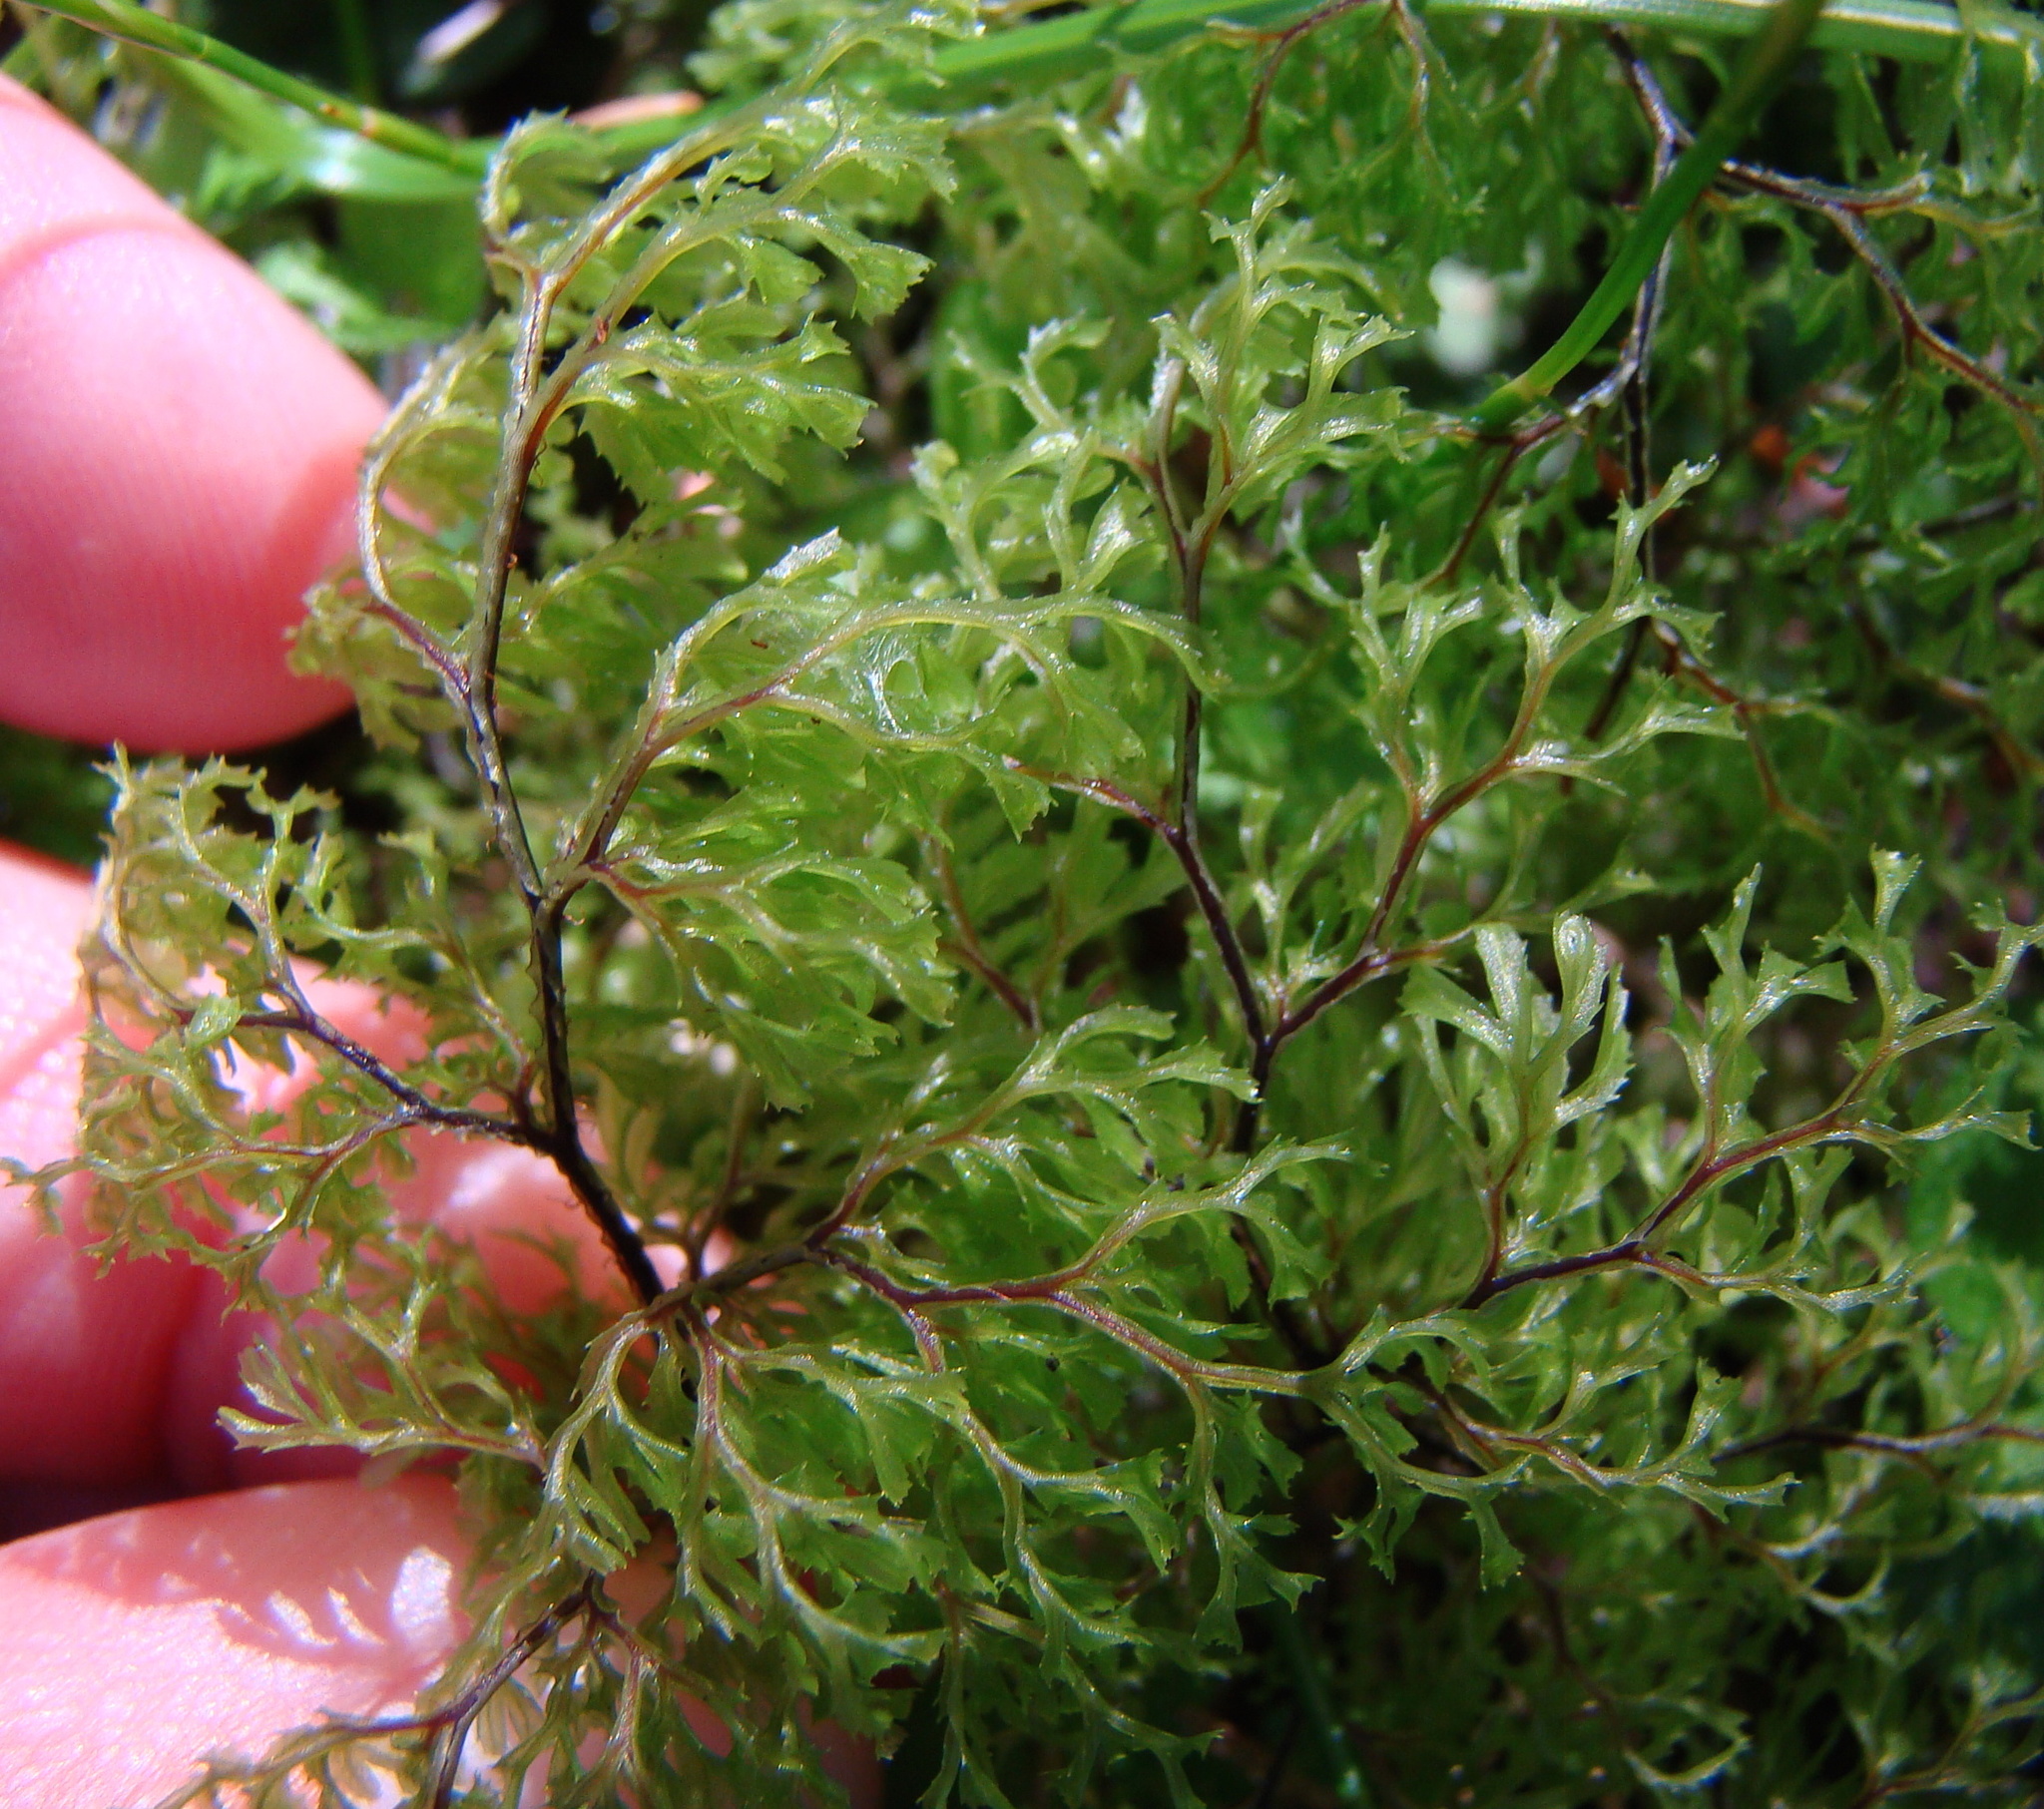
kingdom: Plantae
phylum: Tracheophyta
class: Polypodiopsida
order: Hymenophyllales
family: Hymenophyllaceae
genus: Hymenophyllum
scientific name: Hymenophyllum multifidum
